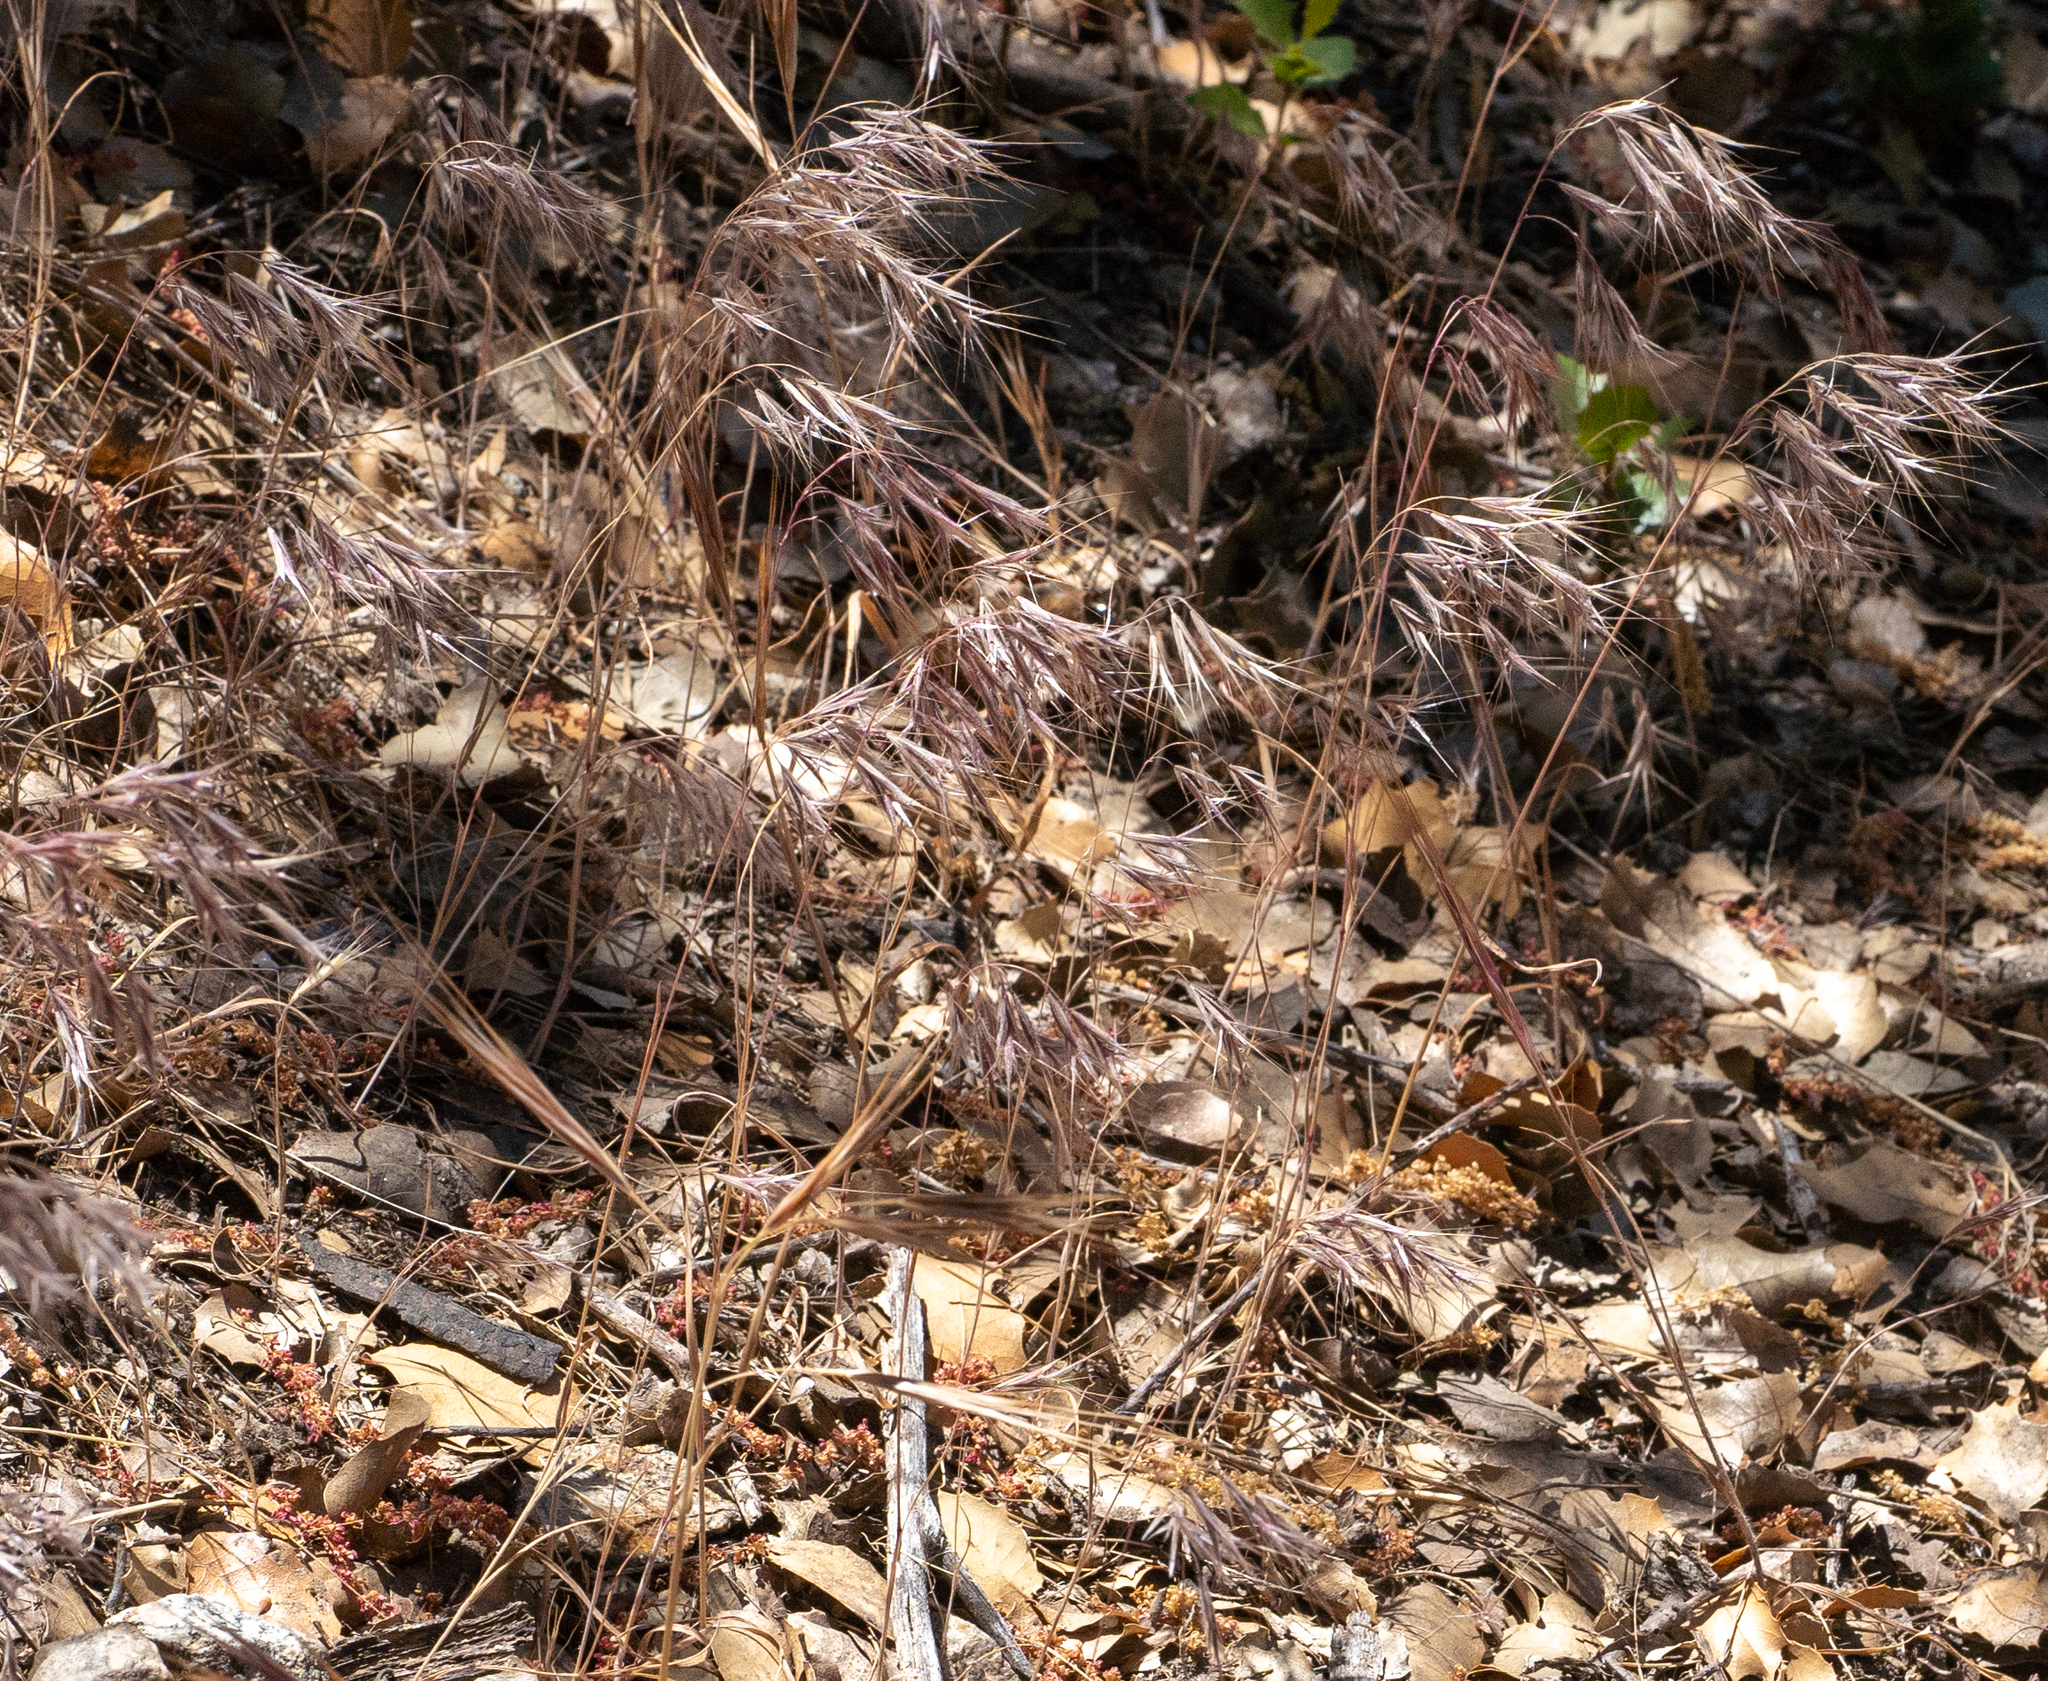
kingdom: Plantae
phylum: Tracheophyta
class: Liliopsida
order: Poales
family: Poaceae
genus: Bromus
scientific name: Bromus tectorum
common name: Cheatgrass
